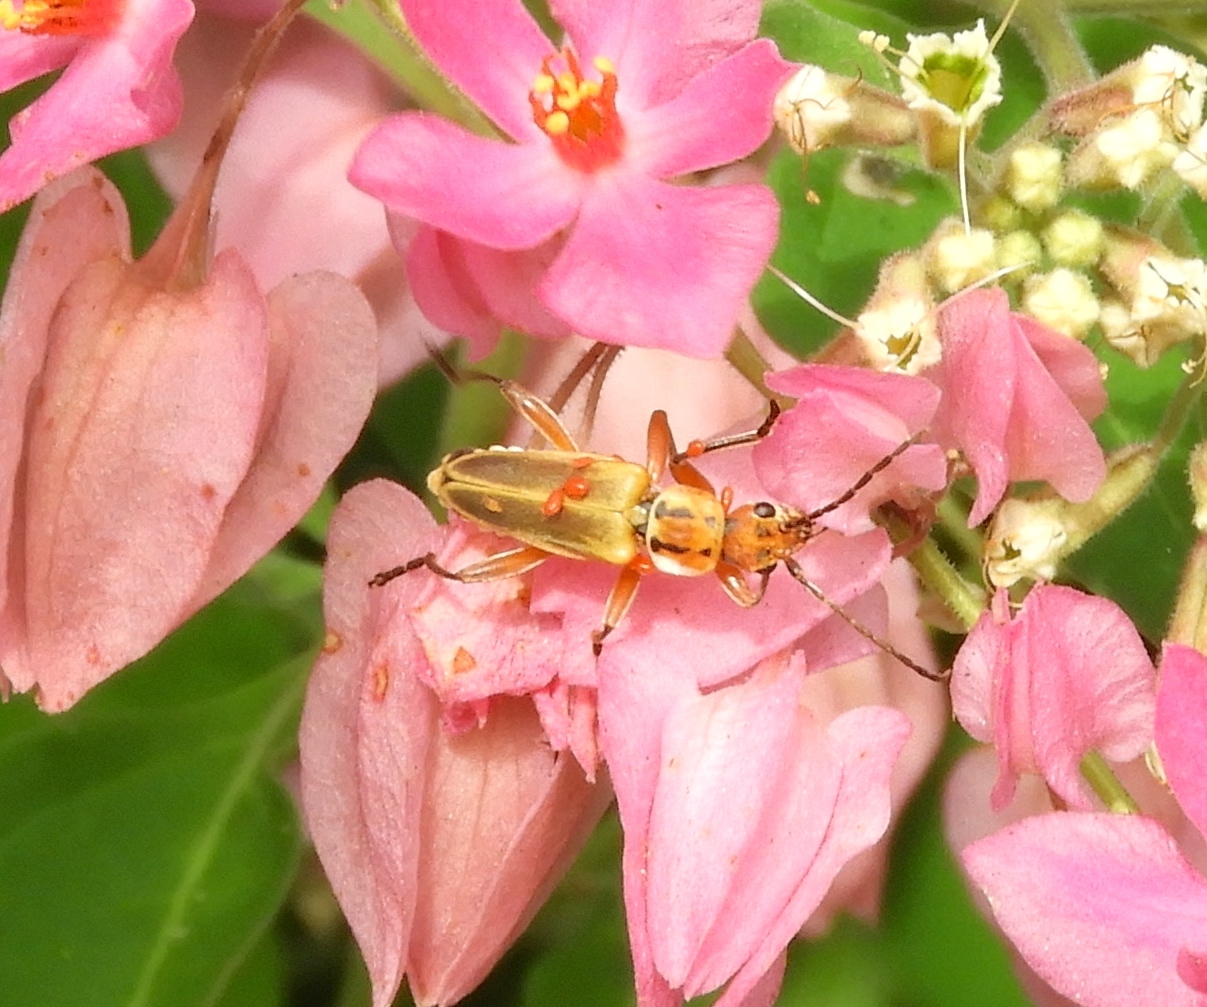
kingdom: Animalia
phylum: Arthropoda
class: Insecta
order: Coleoptera
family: Cantharidae
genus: Chauliognathus
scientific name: Chauliognathus
